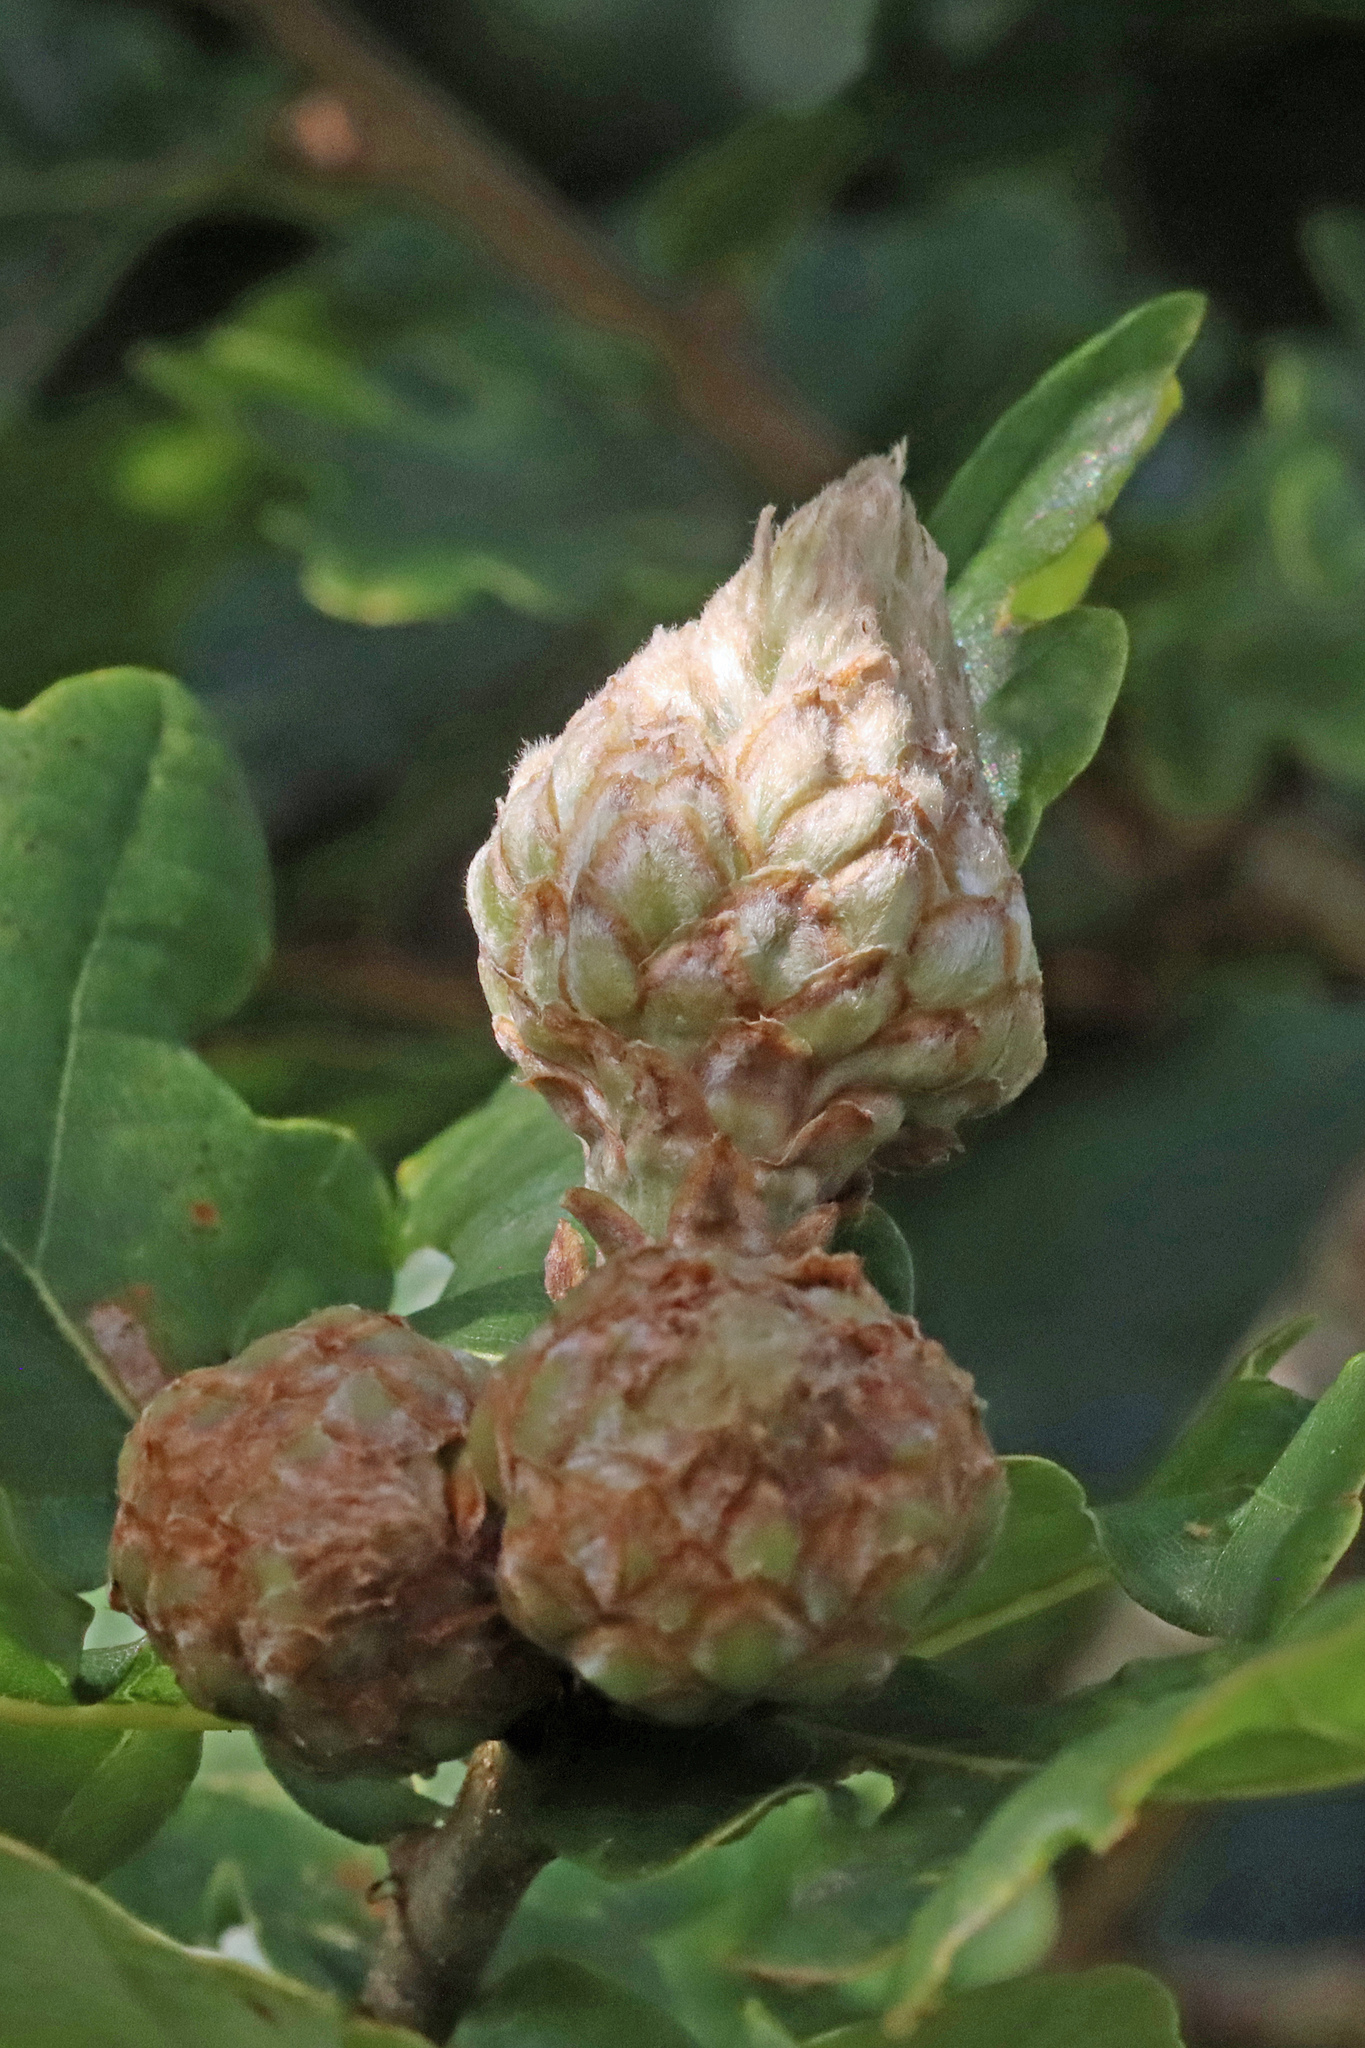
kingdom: Animalia
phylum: Arthropoda
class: Insecta
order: Hymenoptera
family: Cynipidae
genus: Andricus
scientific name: Andricus foecundatrix
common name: Artichoke gall
